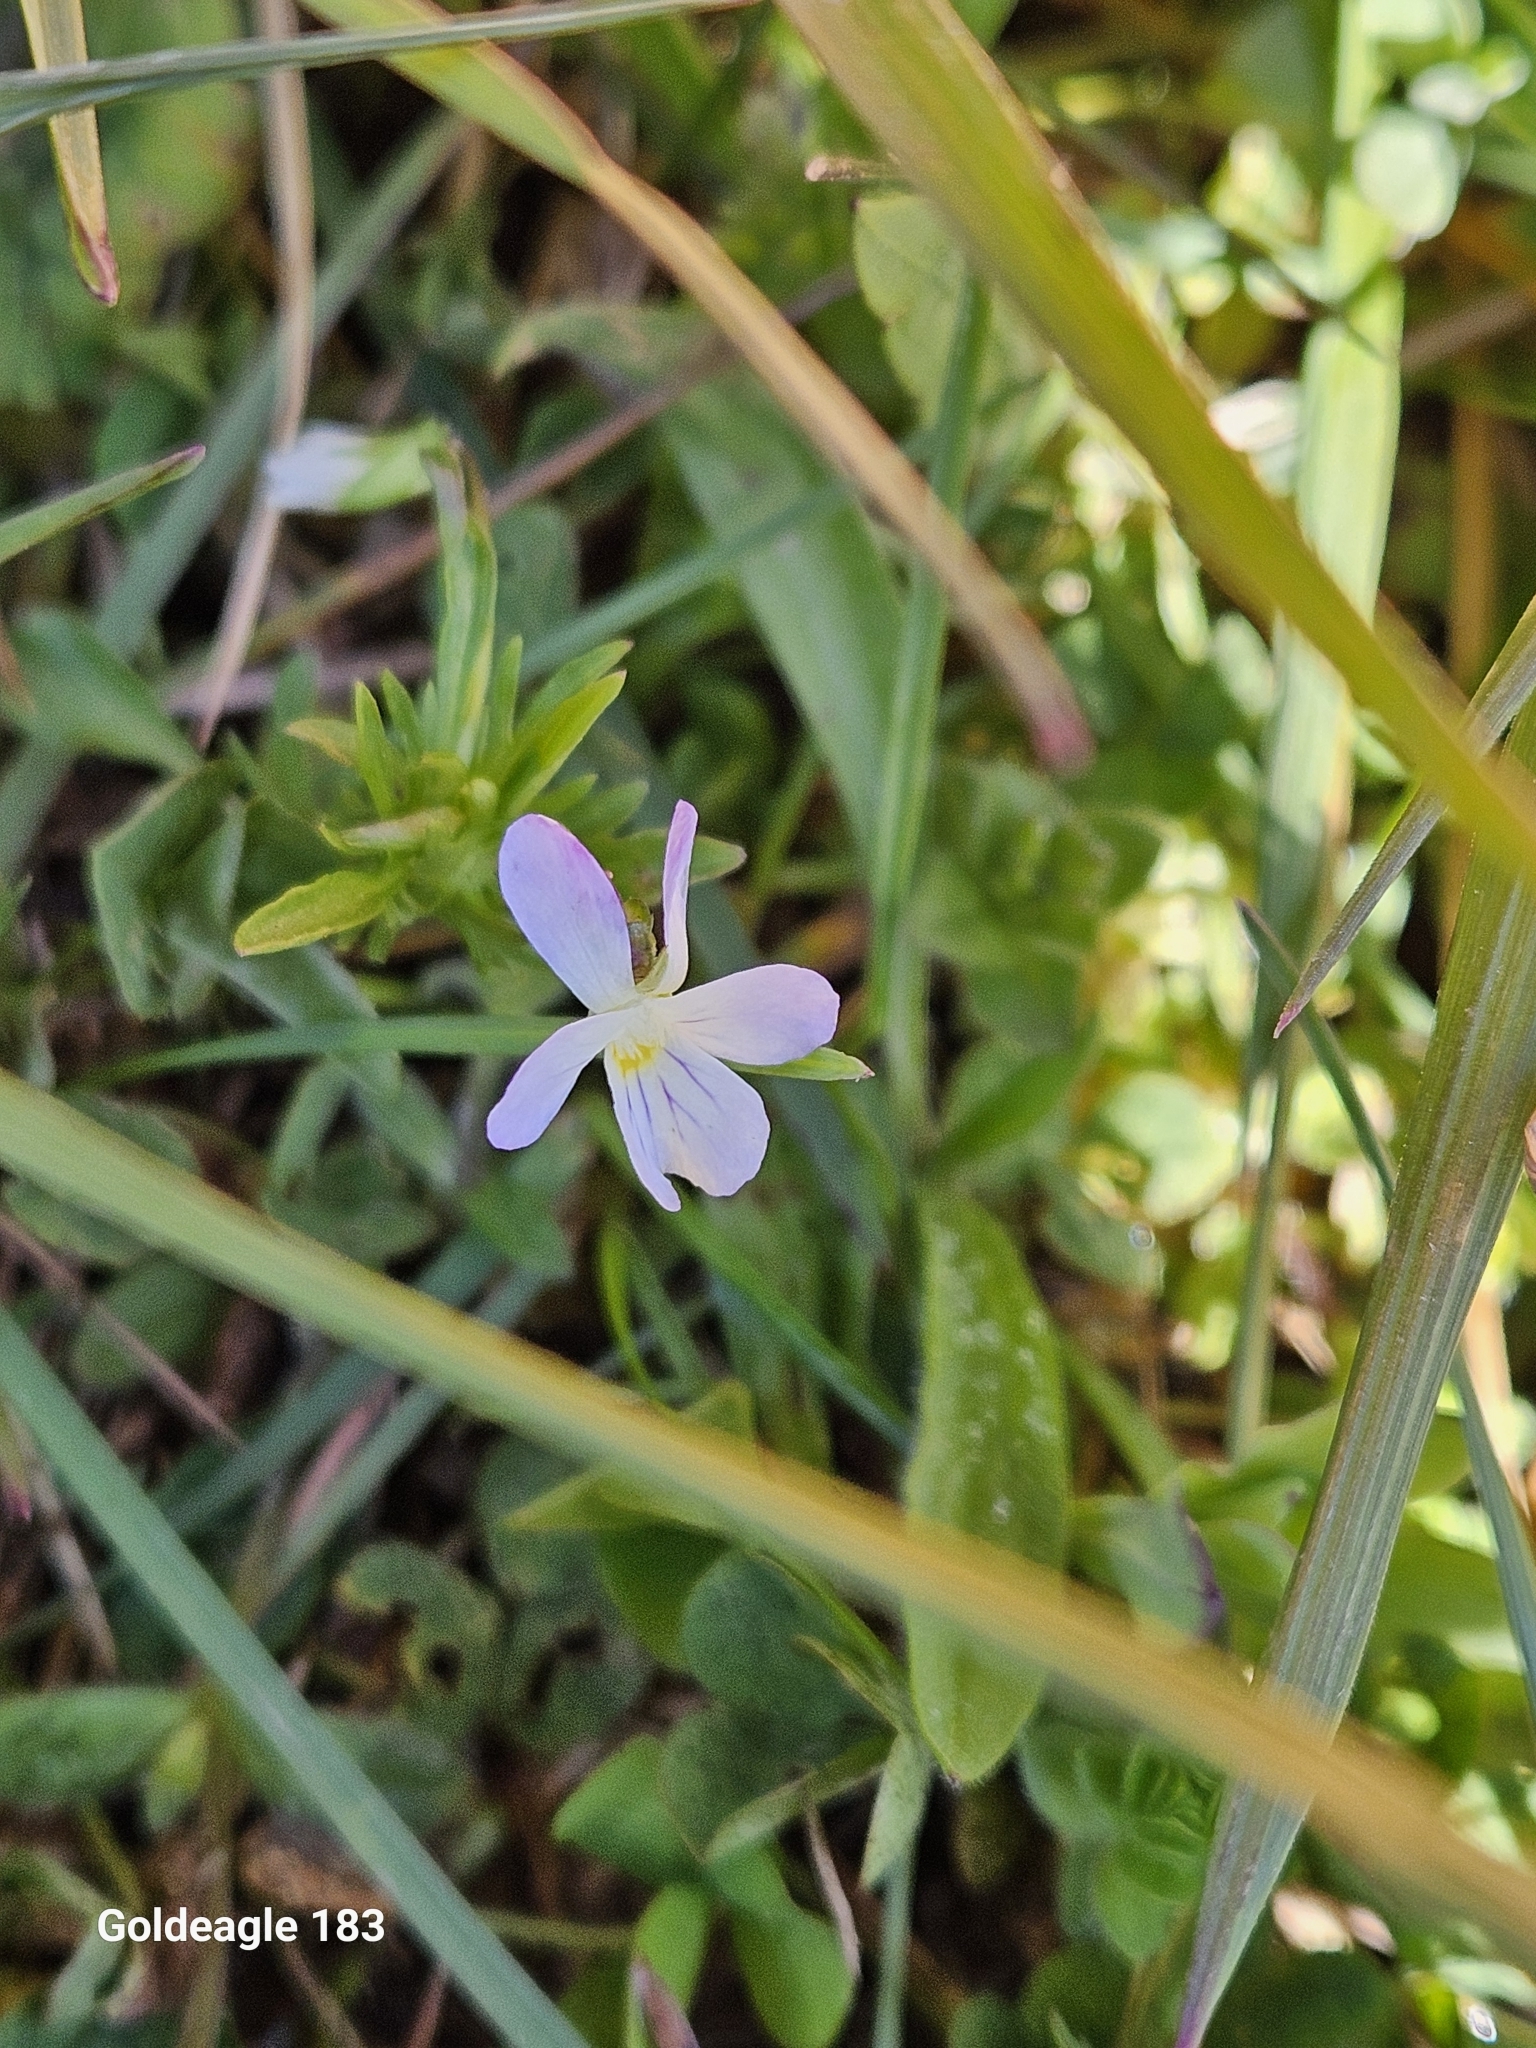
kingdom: Plantae
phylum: Tracheophyta
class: Magnoliopsida
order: Malpighiales
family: Violaceae
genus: Viola
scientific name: Viola rafinesquei
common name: American field pansy
